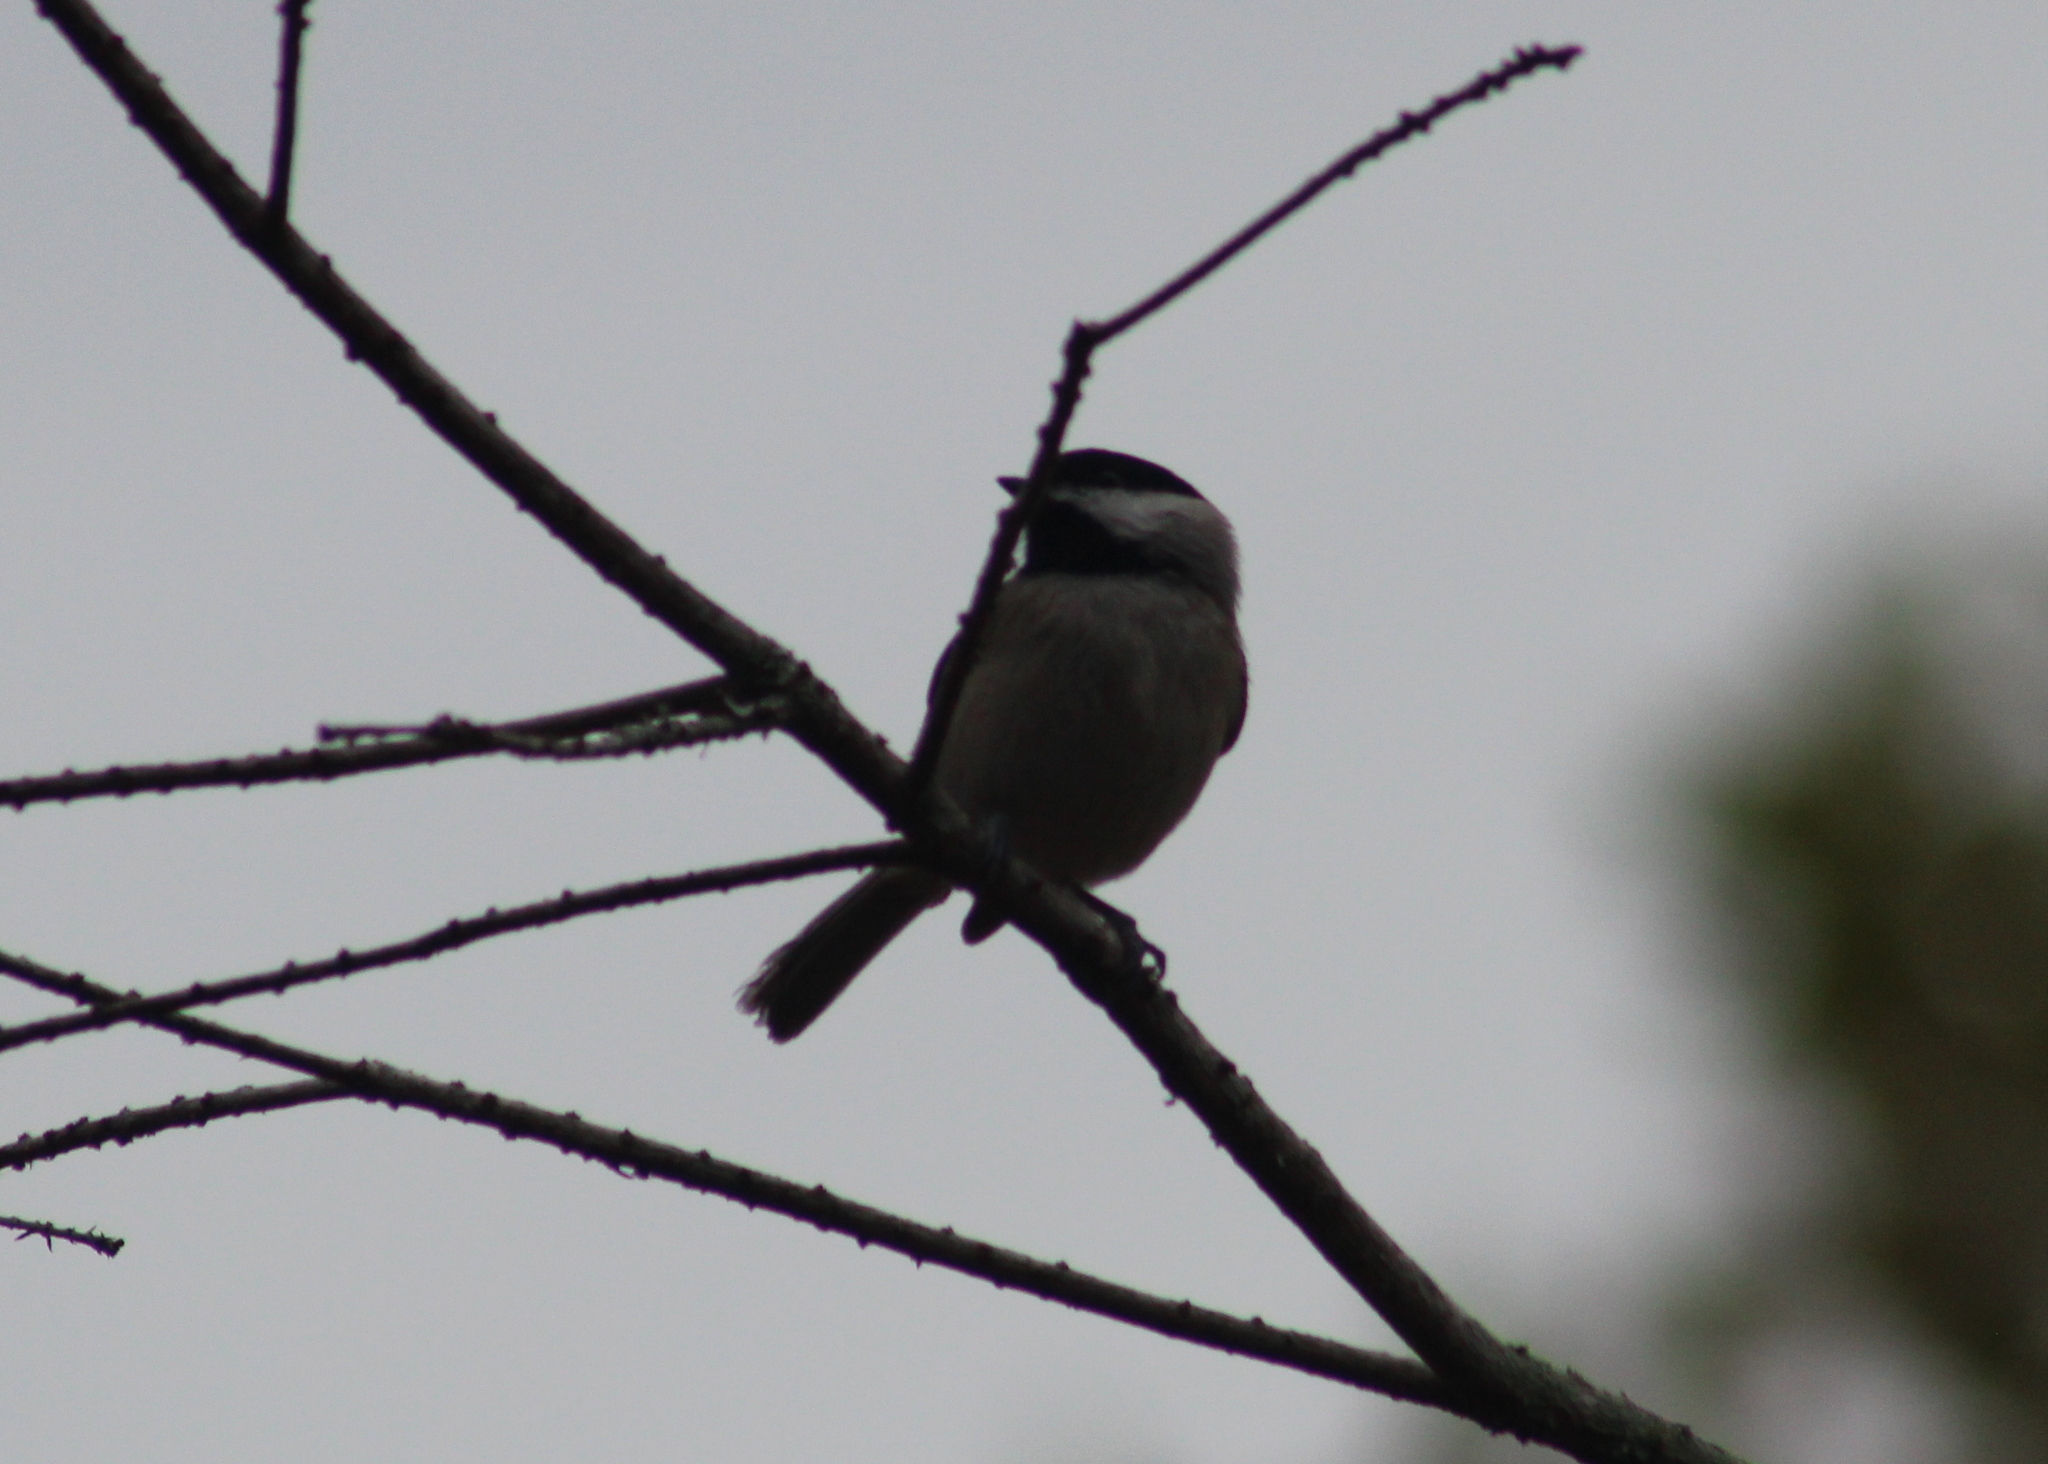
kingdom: Animalia
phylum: Chordata
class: Aves
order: Passeriformes
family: Paridae
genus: Poecile
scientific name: Poecile carolinensis
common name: Carolina chickadee
